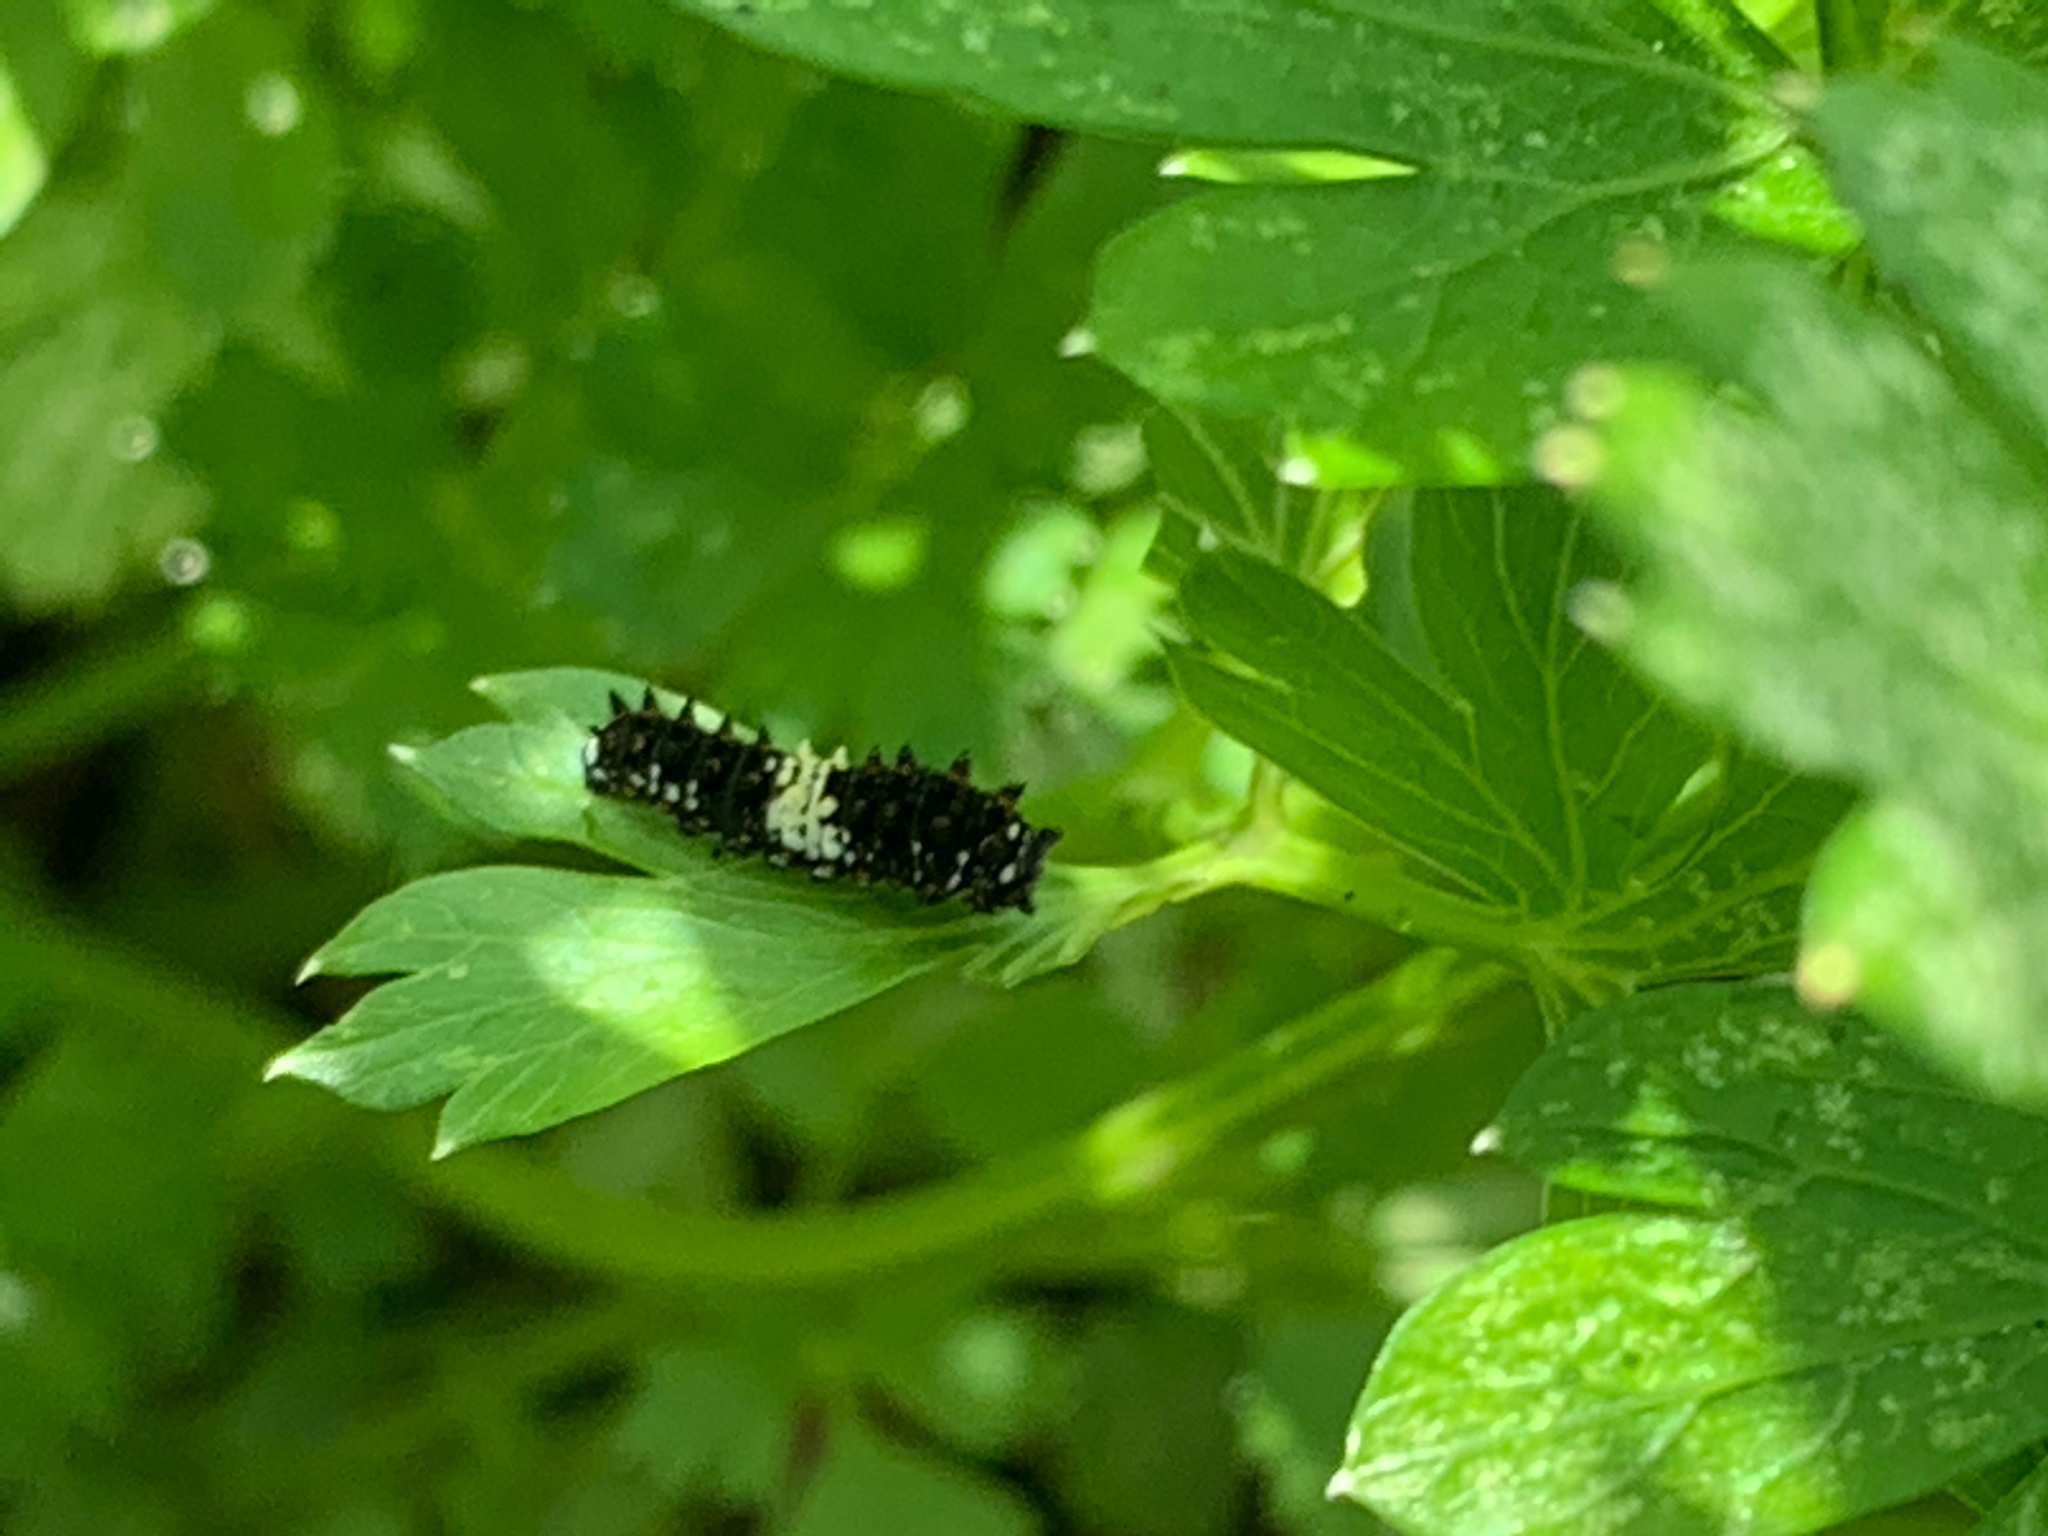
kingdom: Animalia
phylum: Arthropoda
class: Insecta
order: Lepidoptera
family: Papilionidae
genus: Papilio
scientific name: Papilio polyxenes
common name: Black swallowtail
